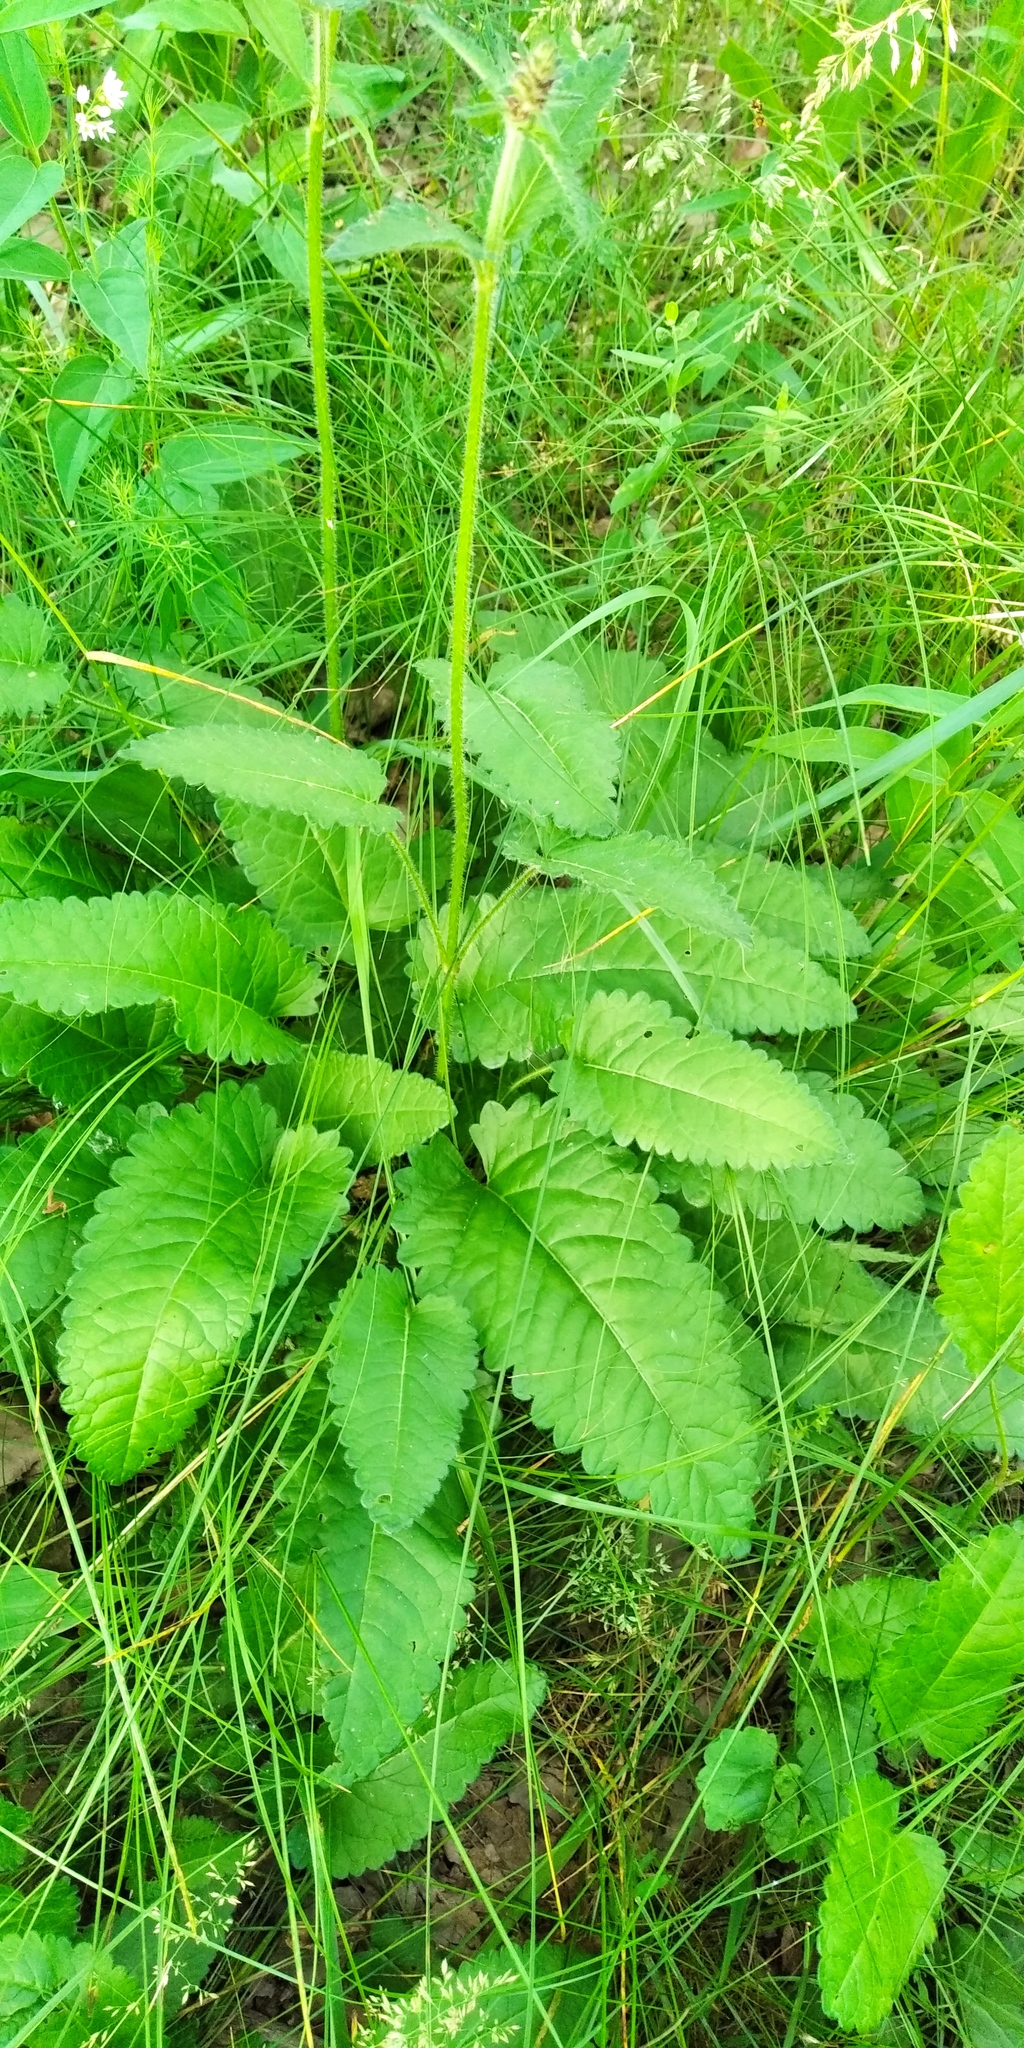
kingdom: Plantae
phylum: Tracheophyta
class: Magnoliopsida
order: Lamiales
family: Lamiaceae
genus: Betonica
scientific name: Betonica officinalis
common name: Bishop's-wort
